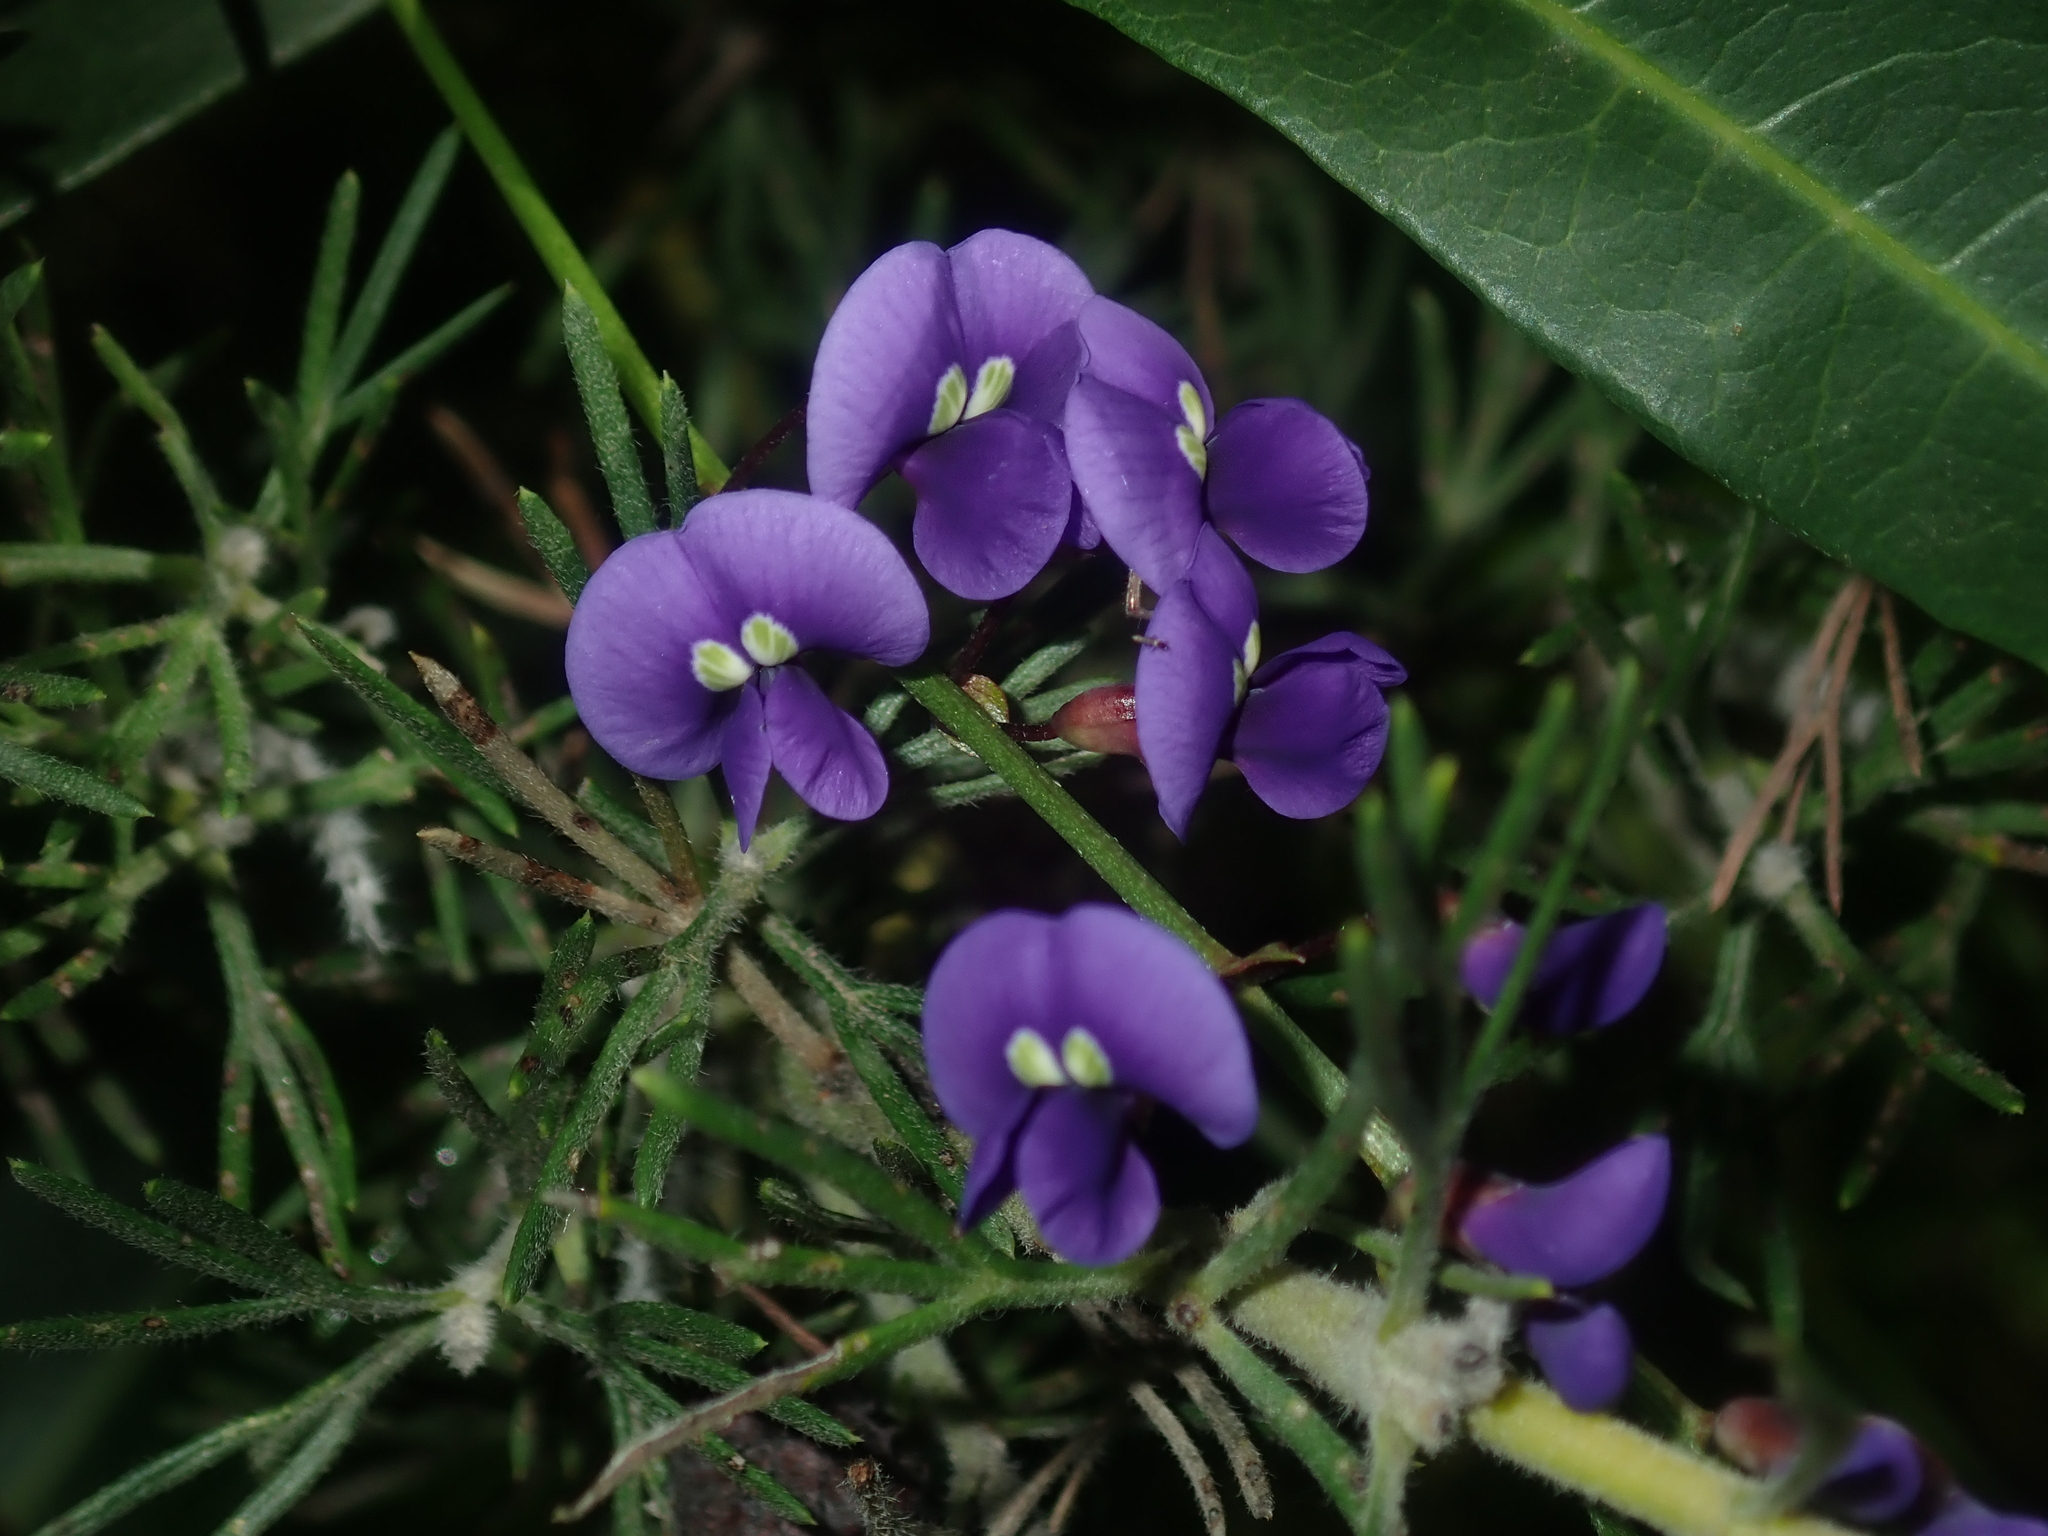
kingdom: Plantae
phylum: Tracheophyta
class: Magnoliopsida
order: Fabales
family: Fabaceae
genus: Hardenbergia
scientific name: Hardenbergia comptoniana
